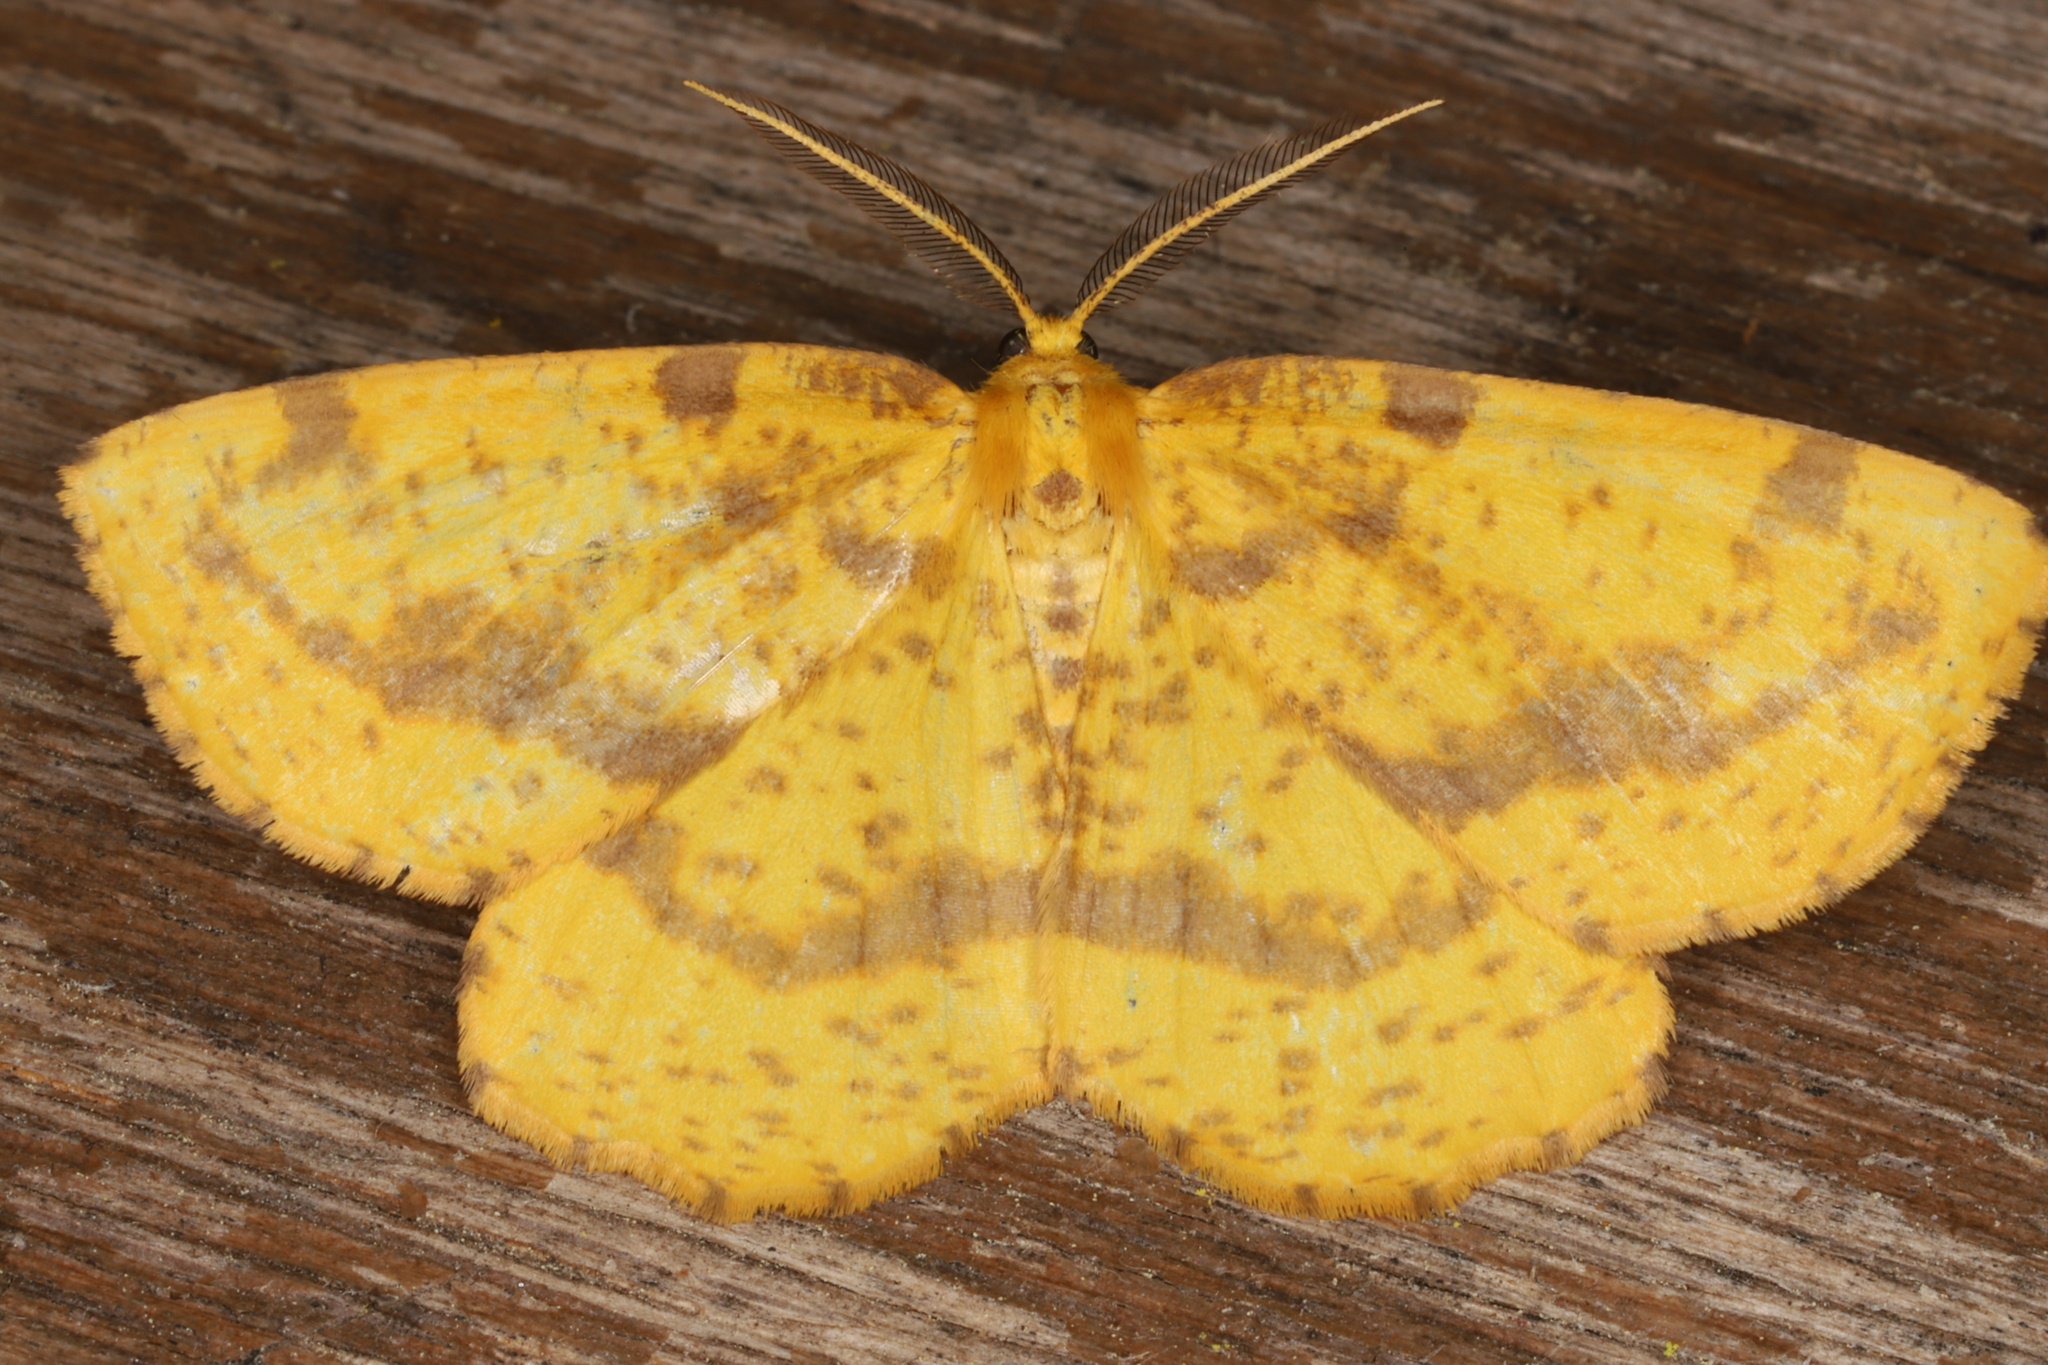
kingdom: Animalia
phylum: Arthropoda
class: Insecta
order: Lepidoptera
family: Geometridae
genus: Xanthotype
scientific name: Xanthotype
